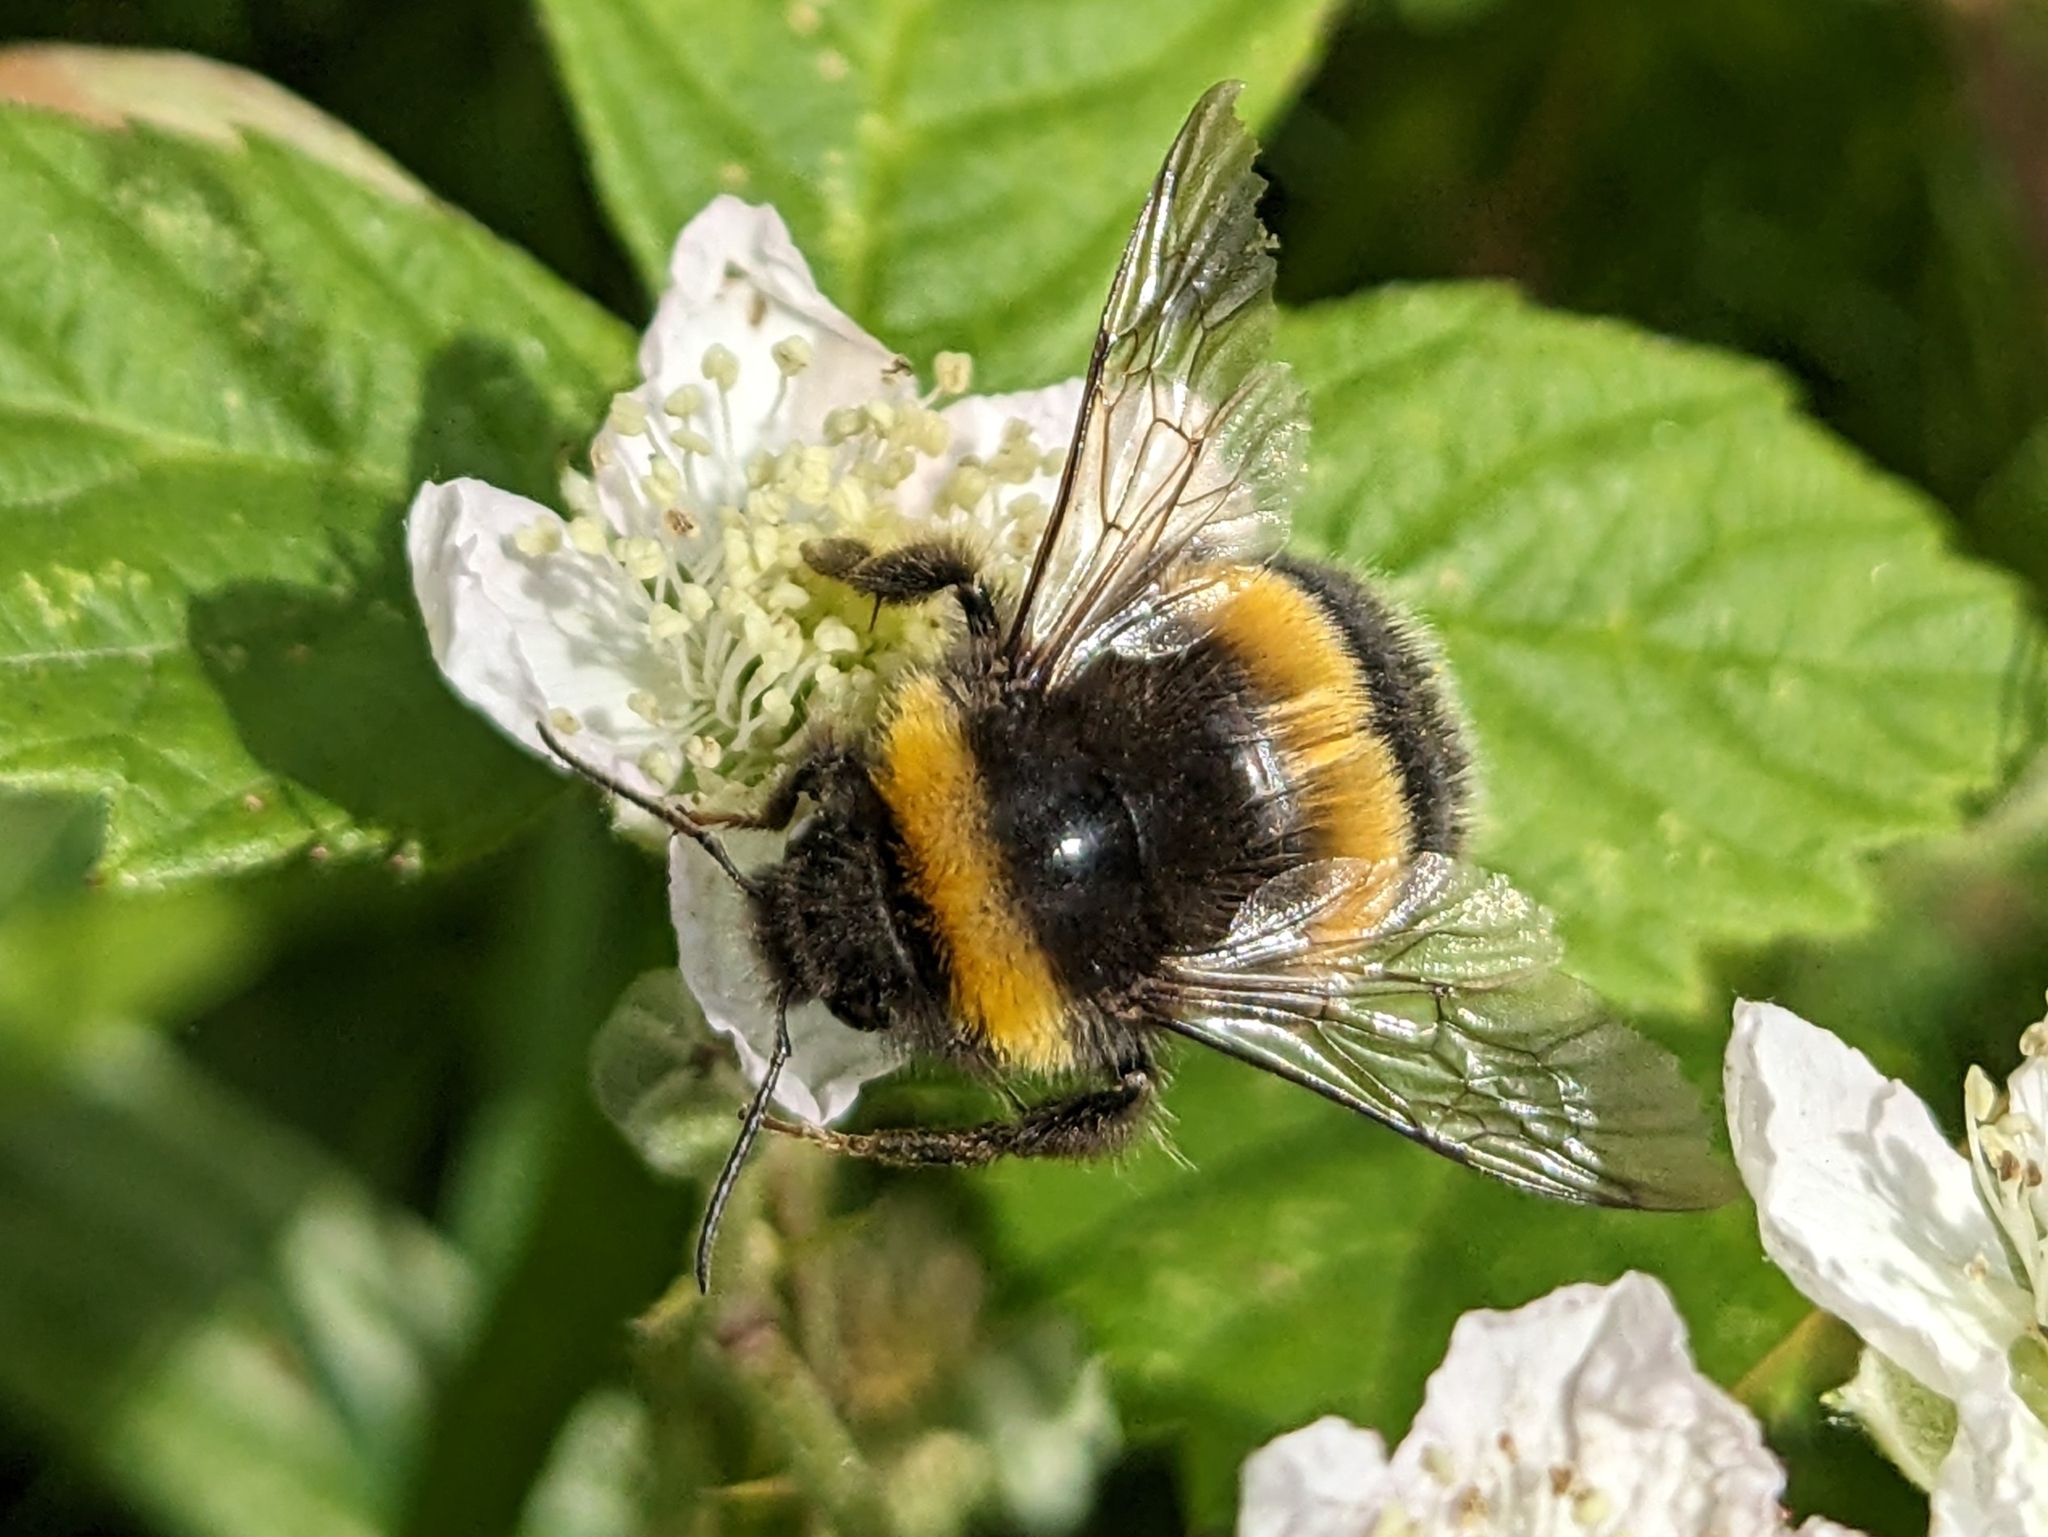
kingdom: Animalia
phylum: Arthropoda
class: Insecta
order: Hymenoptera
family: Apidae
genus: Bombus
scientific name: Bombus vestalis
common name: Vestal cuckoo bee
